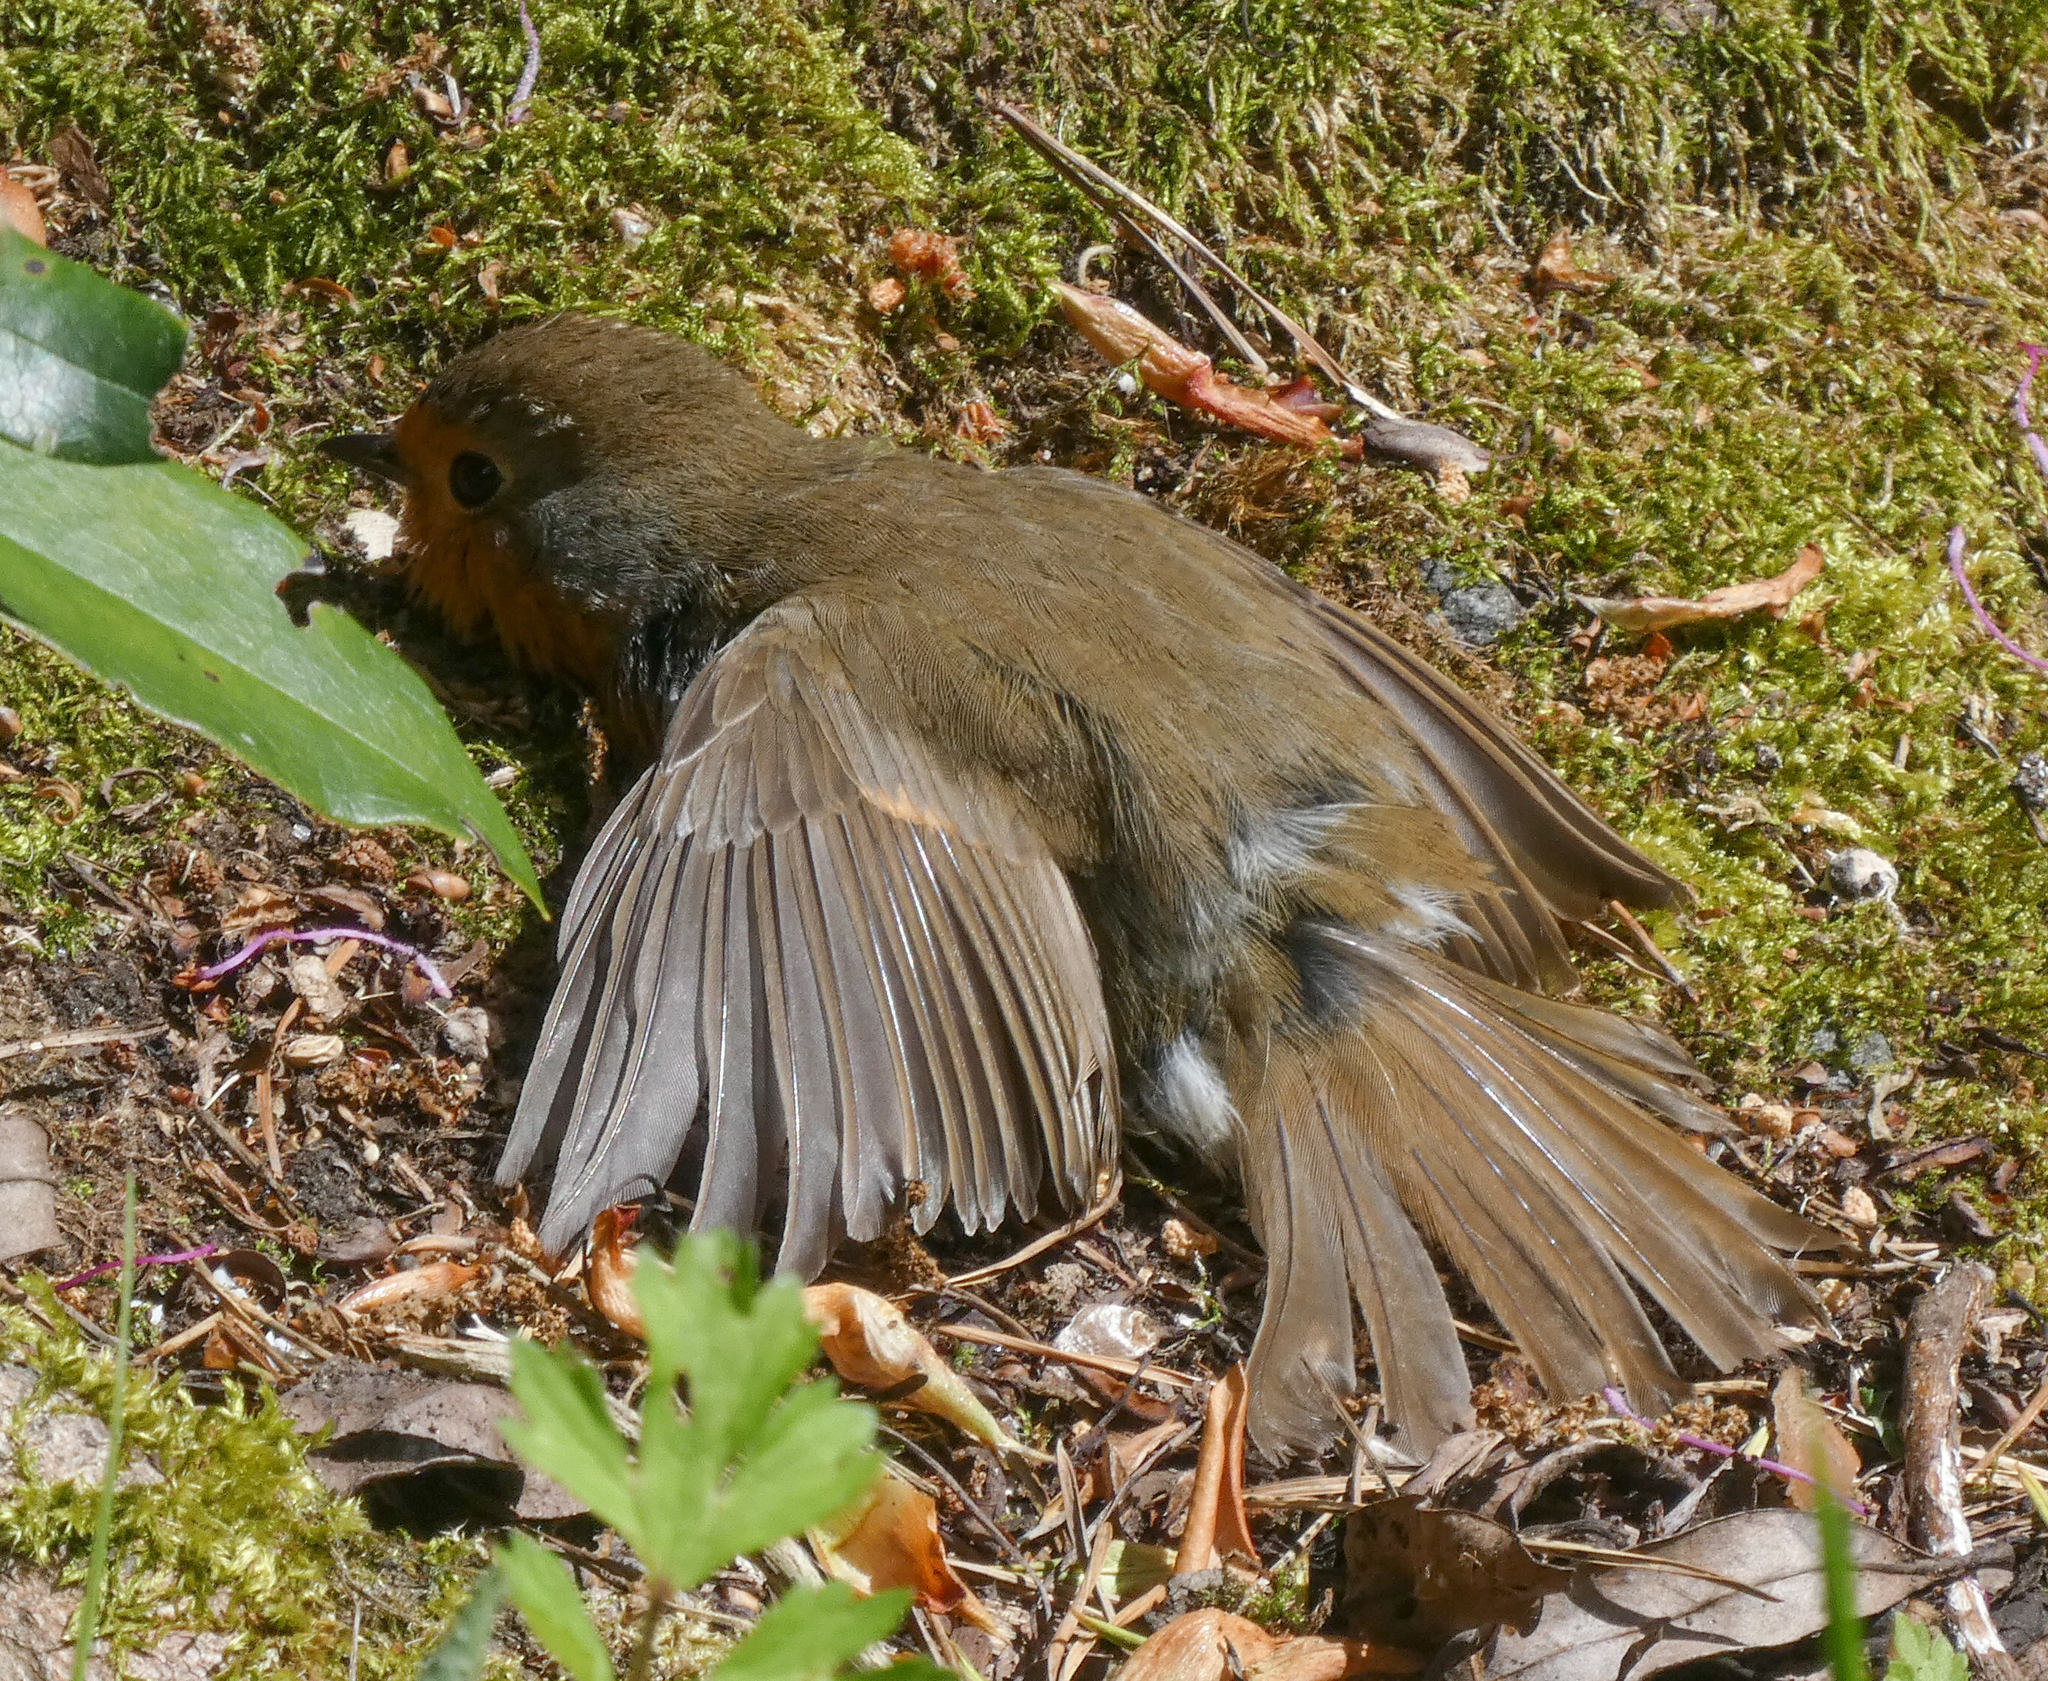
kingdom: Animalia
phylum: Chordata
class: Aves
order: Passeriformes
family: Muscicapidae
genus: Erithacus
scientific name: Erithacus rubecula
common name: European robin
